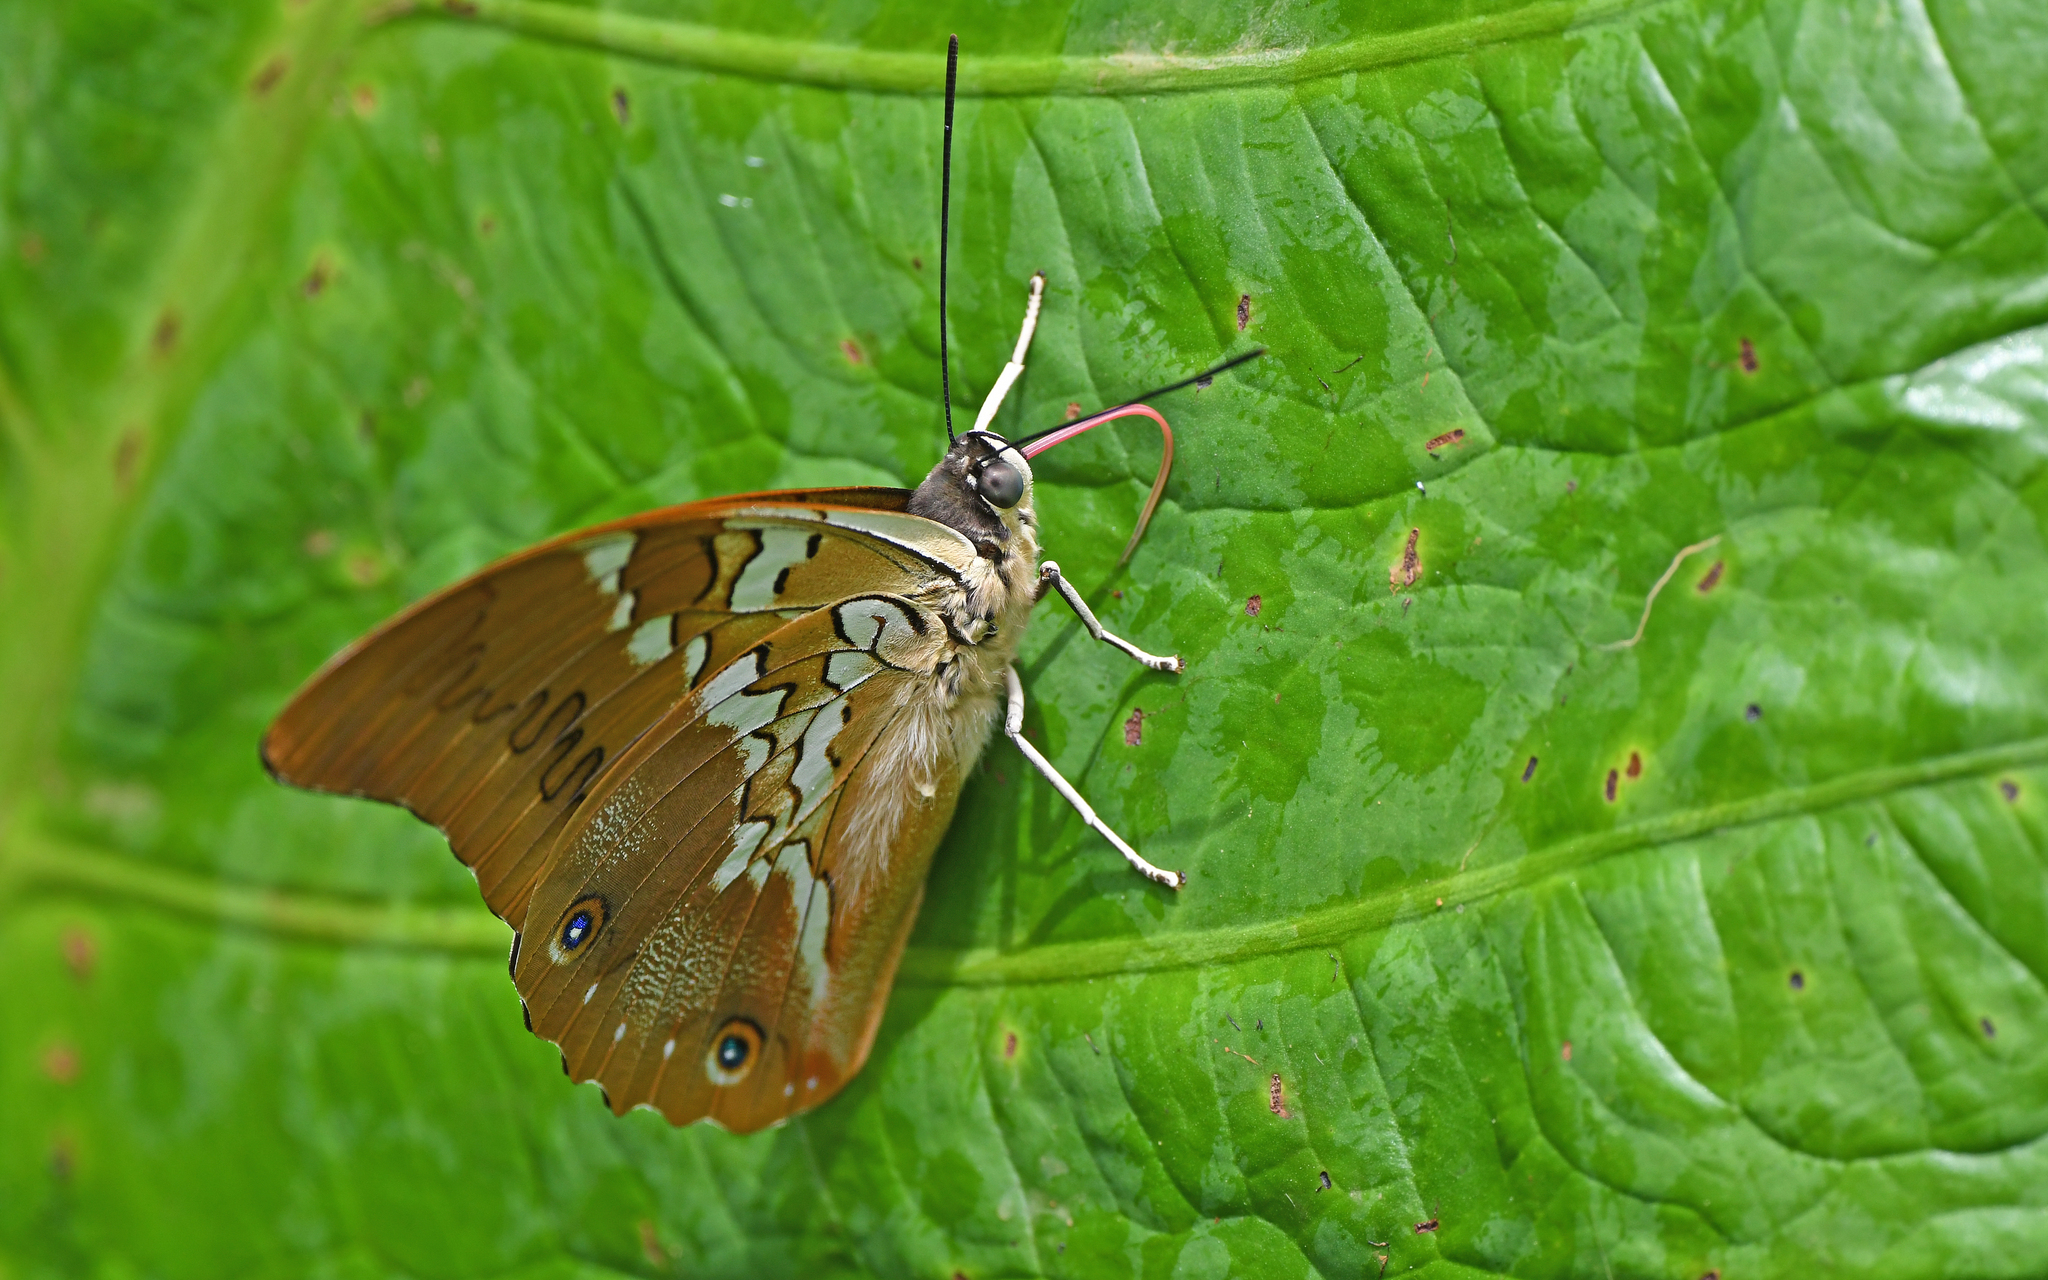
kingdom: Animalia
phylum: Arthropoda
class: Insecta
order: Lepidoptera
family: Nymphalidae
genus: Prepona
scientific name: Prepona deiphile
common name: Orange-spotted prepona
